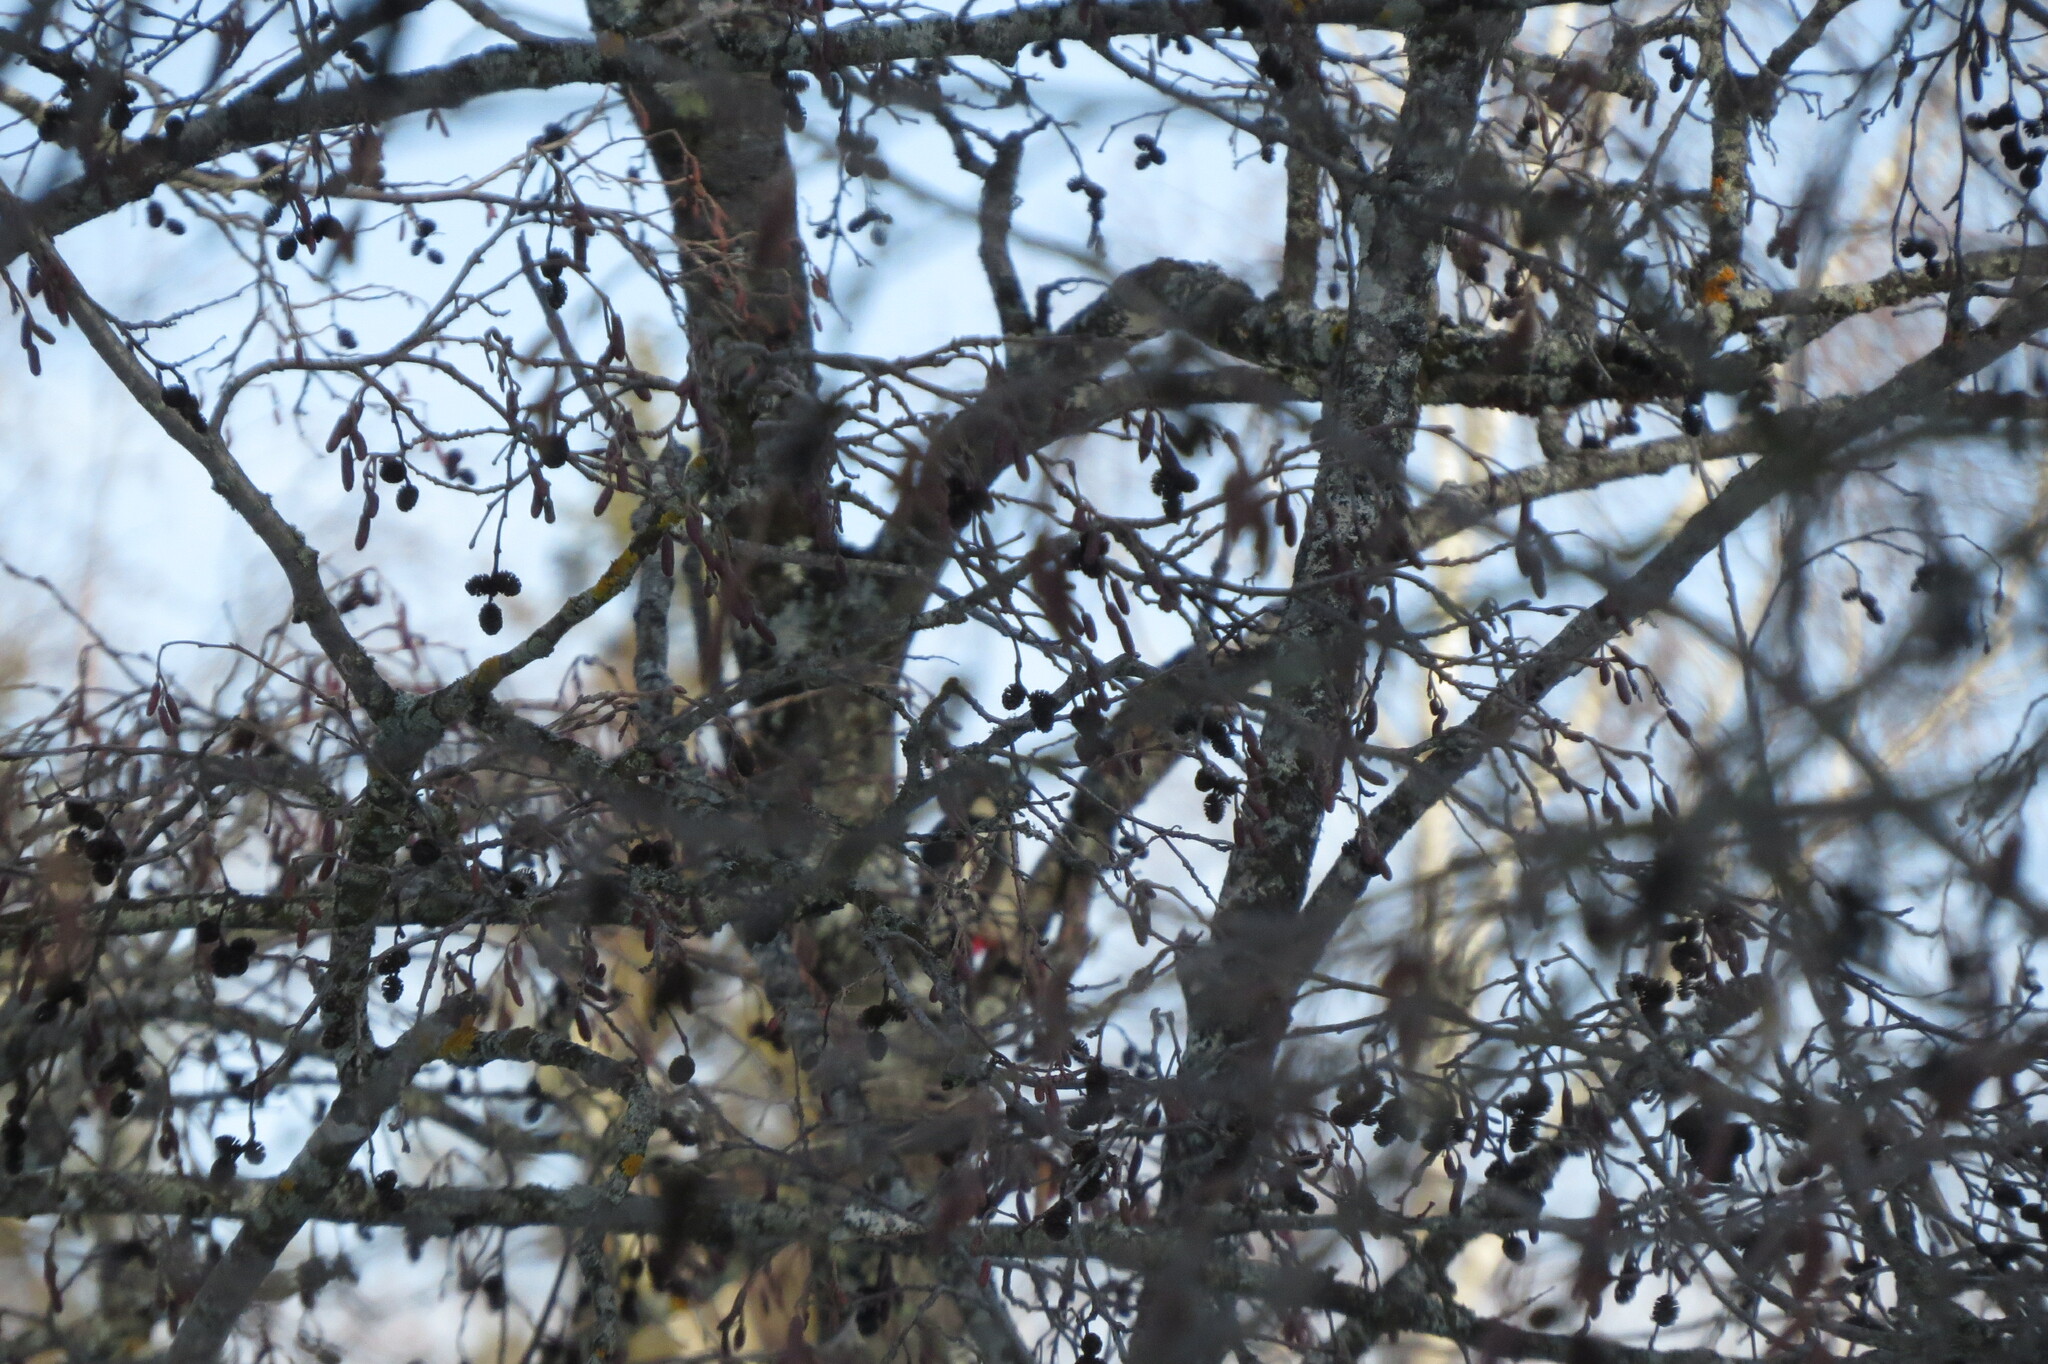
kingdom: Animalia
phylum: Chordata
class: Aves
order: Piciformes
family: Picidae
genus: Dendrocopos
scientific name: Dendrocopos major
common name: Great spotted woodpecker
